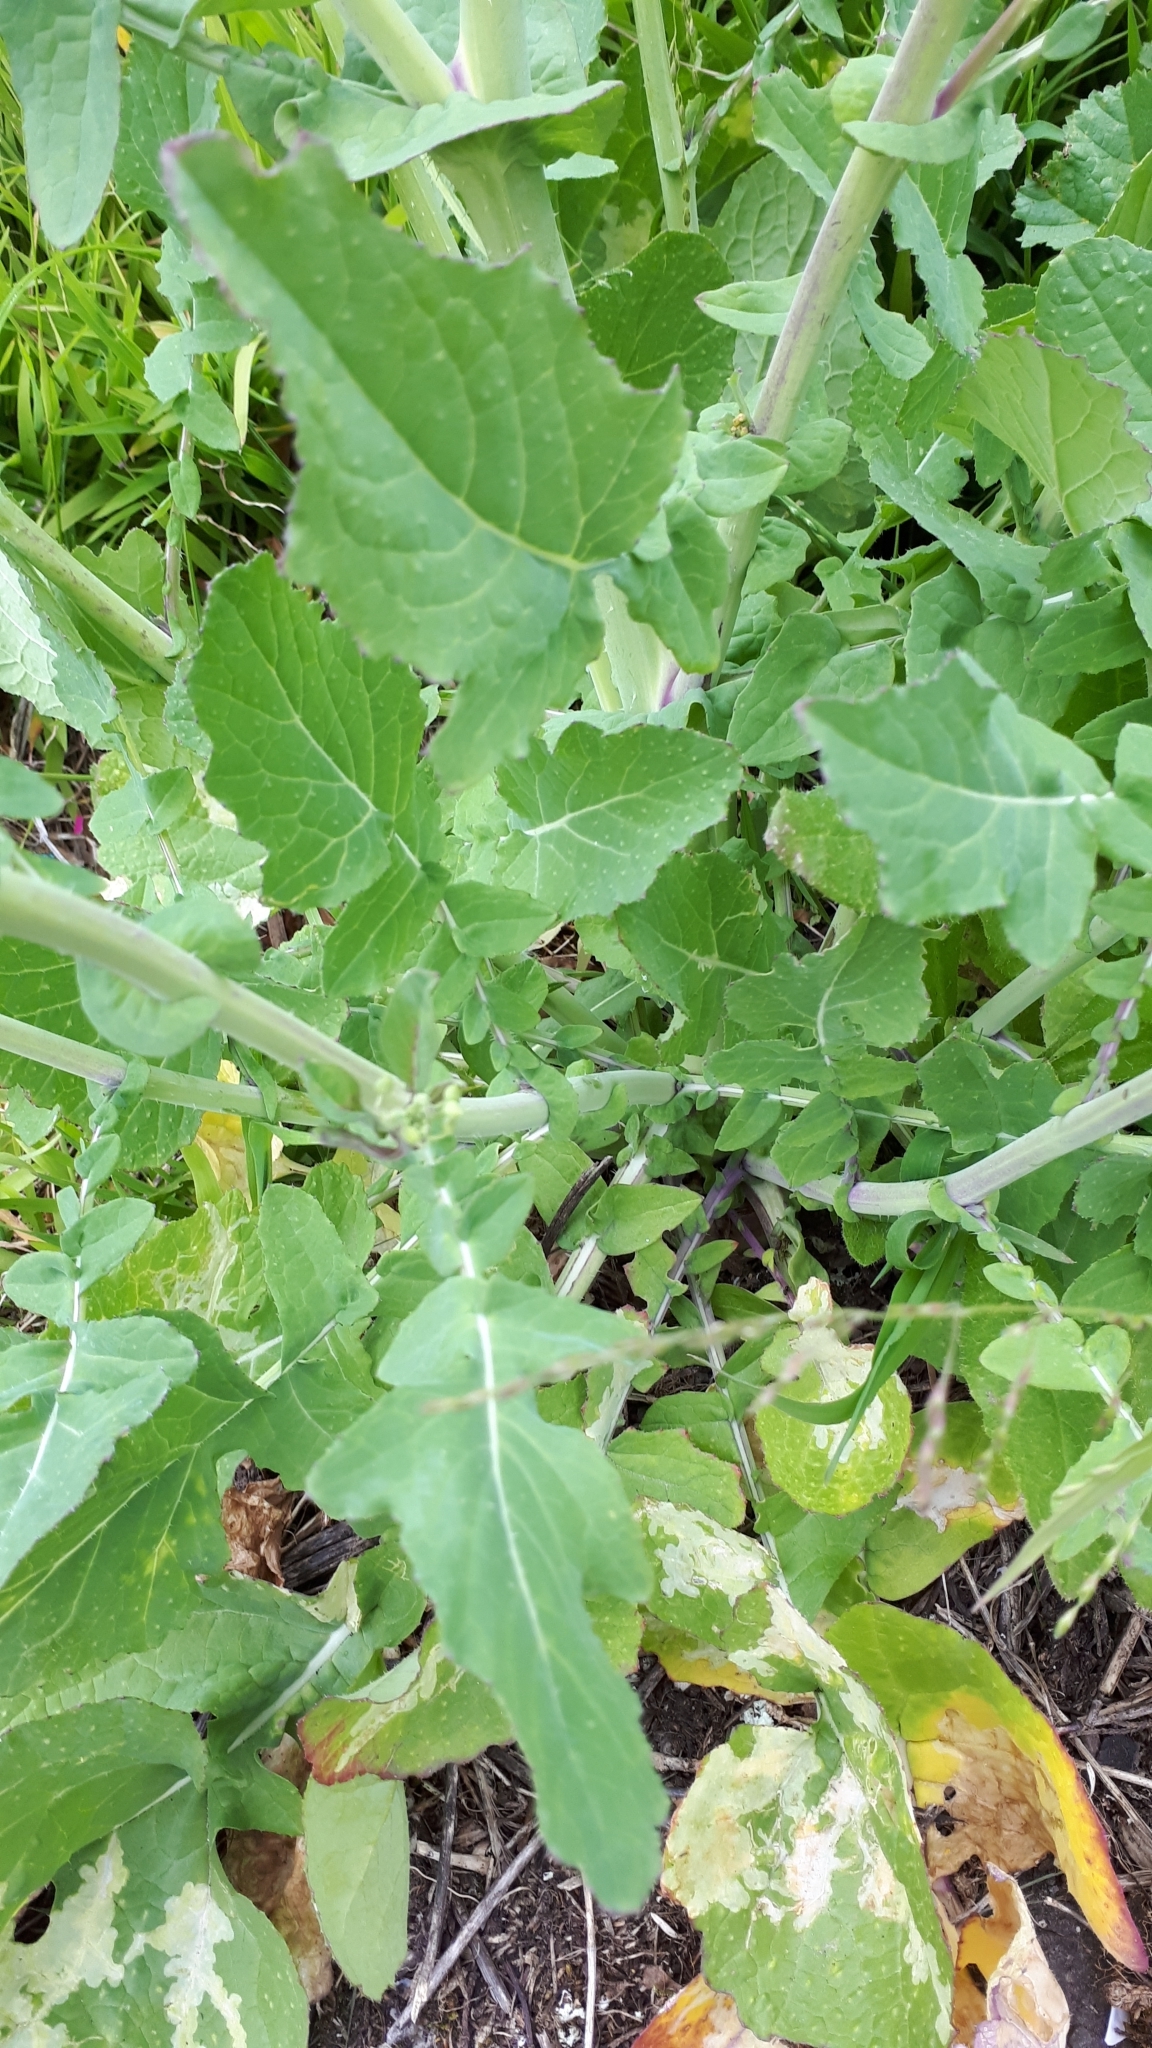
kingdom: Plantae
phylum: Tracheophyta
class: Magnoliopsida
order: Brassicales
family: Brassicaceae
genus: Brassica
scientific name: Brassica rapa
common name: Field mustard
